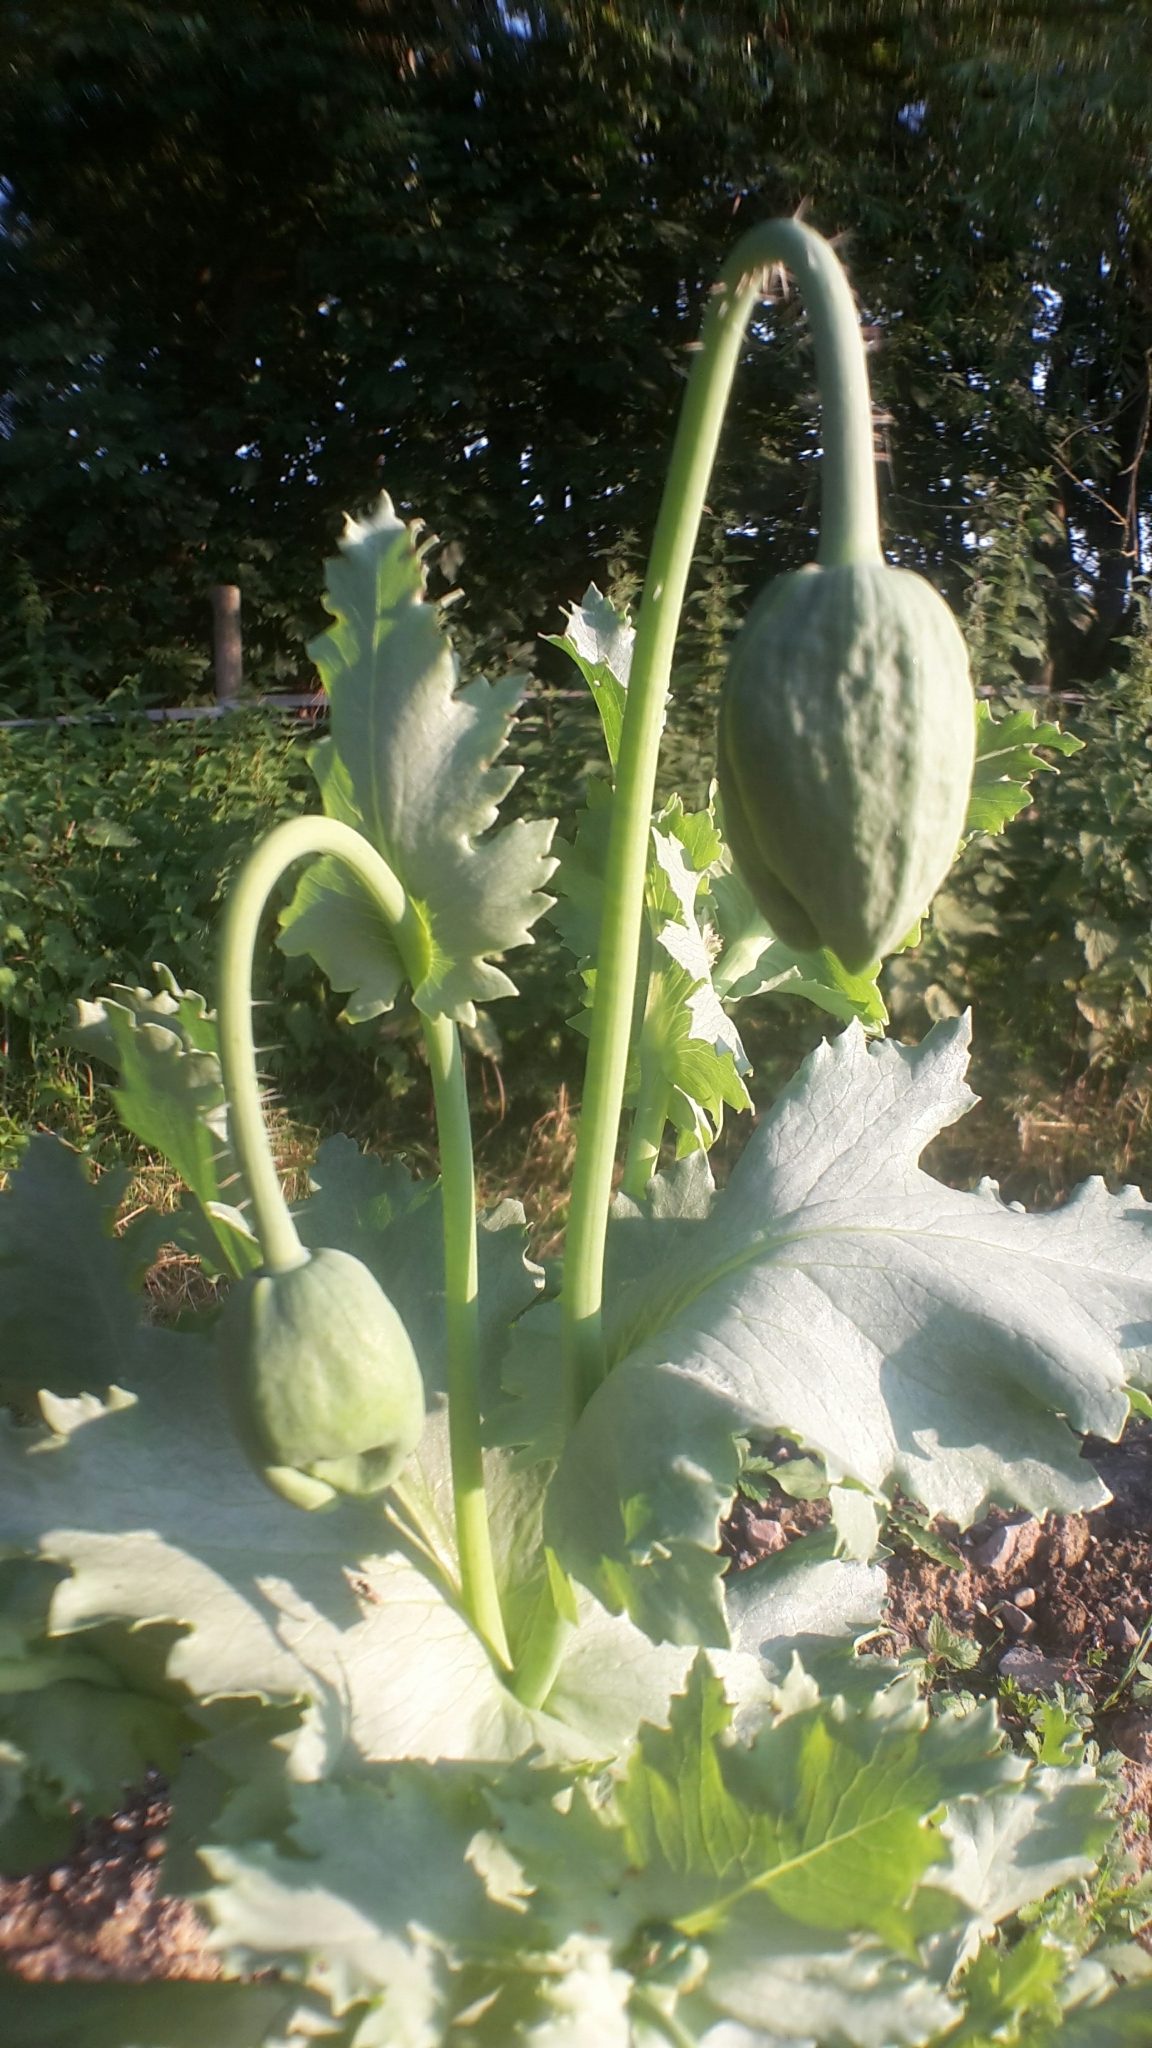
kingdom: Plantae
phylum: Tracheophyta
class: Magnoliopsida
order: Ranunculales
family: Papaveraceae
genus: Papaver
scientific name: Papaver somniferum
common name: Opium poppy
